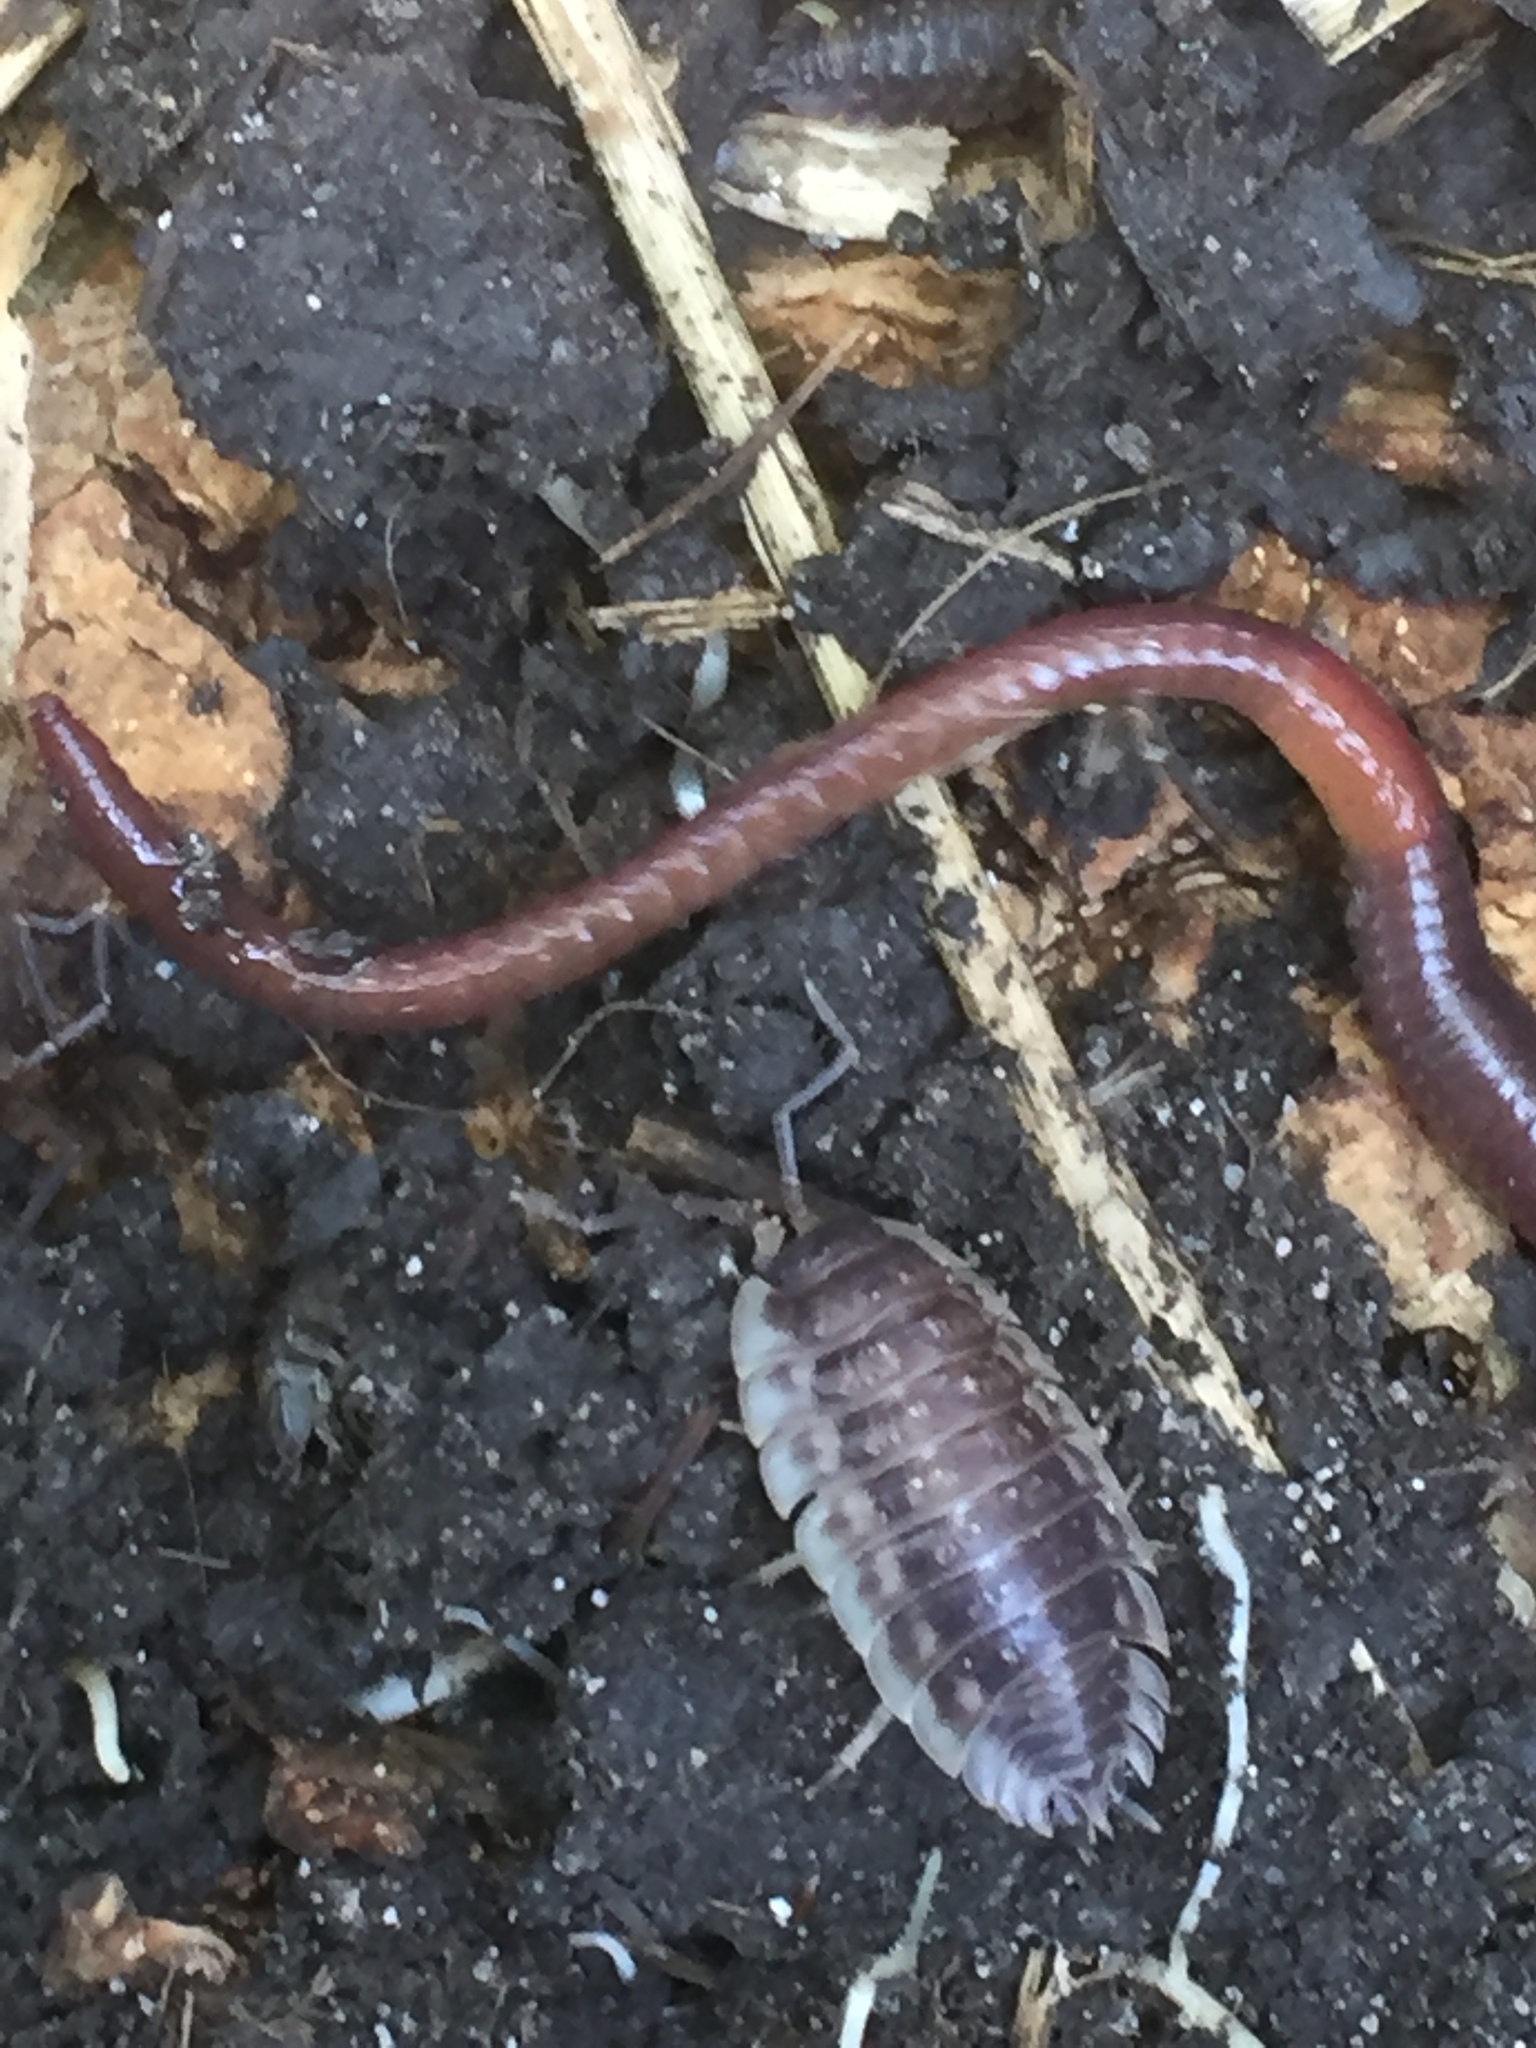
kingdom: Animalia
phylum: Arthropoda
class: Malacostraca
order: Isopoda
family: Oniscidae
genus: Oniscus
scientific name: Oniscus asellus
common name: Common shiny woodlouse
